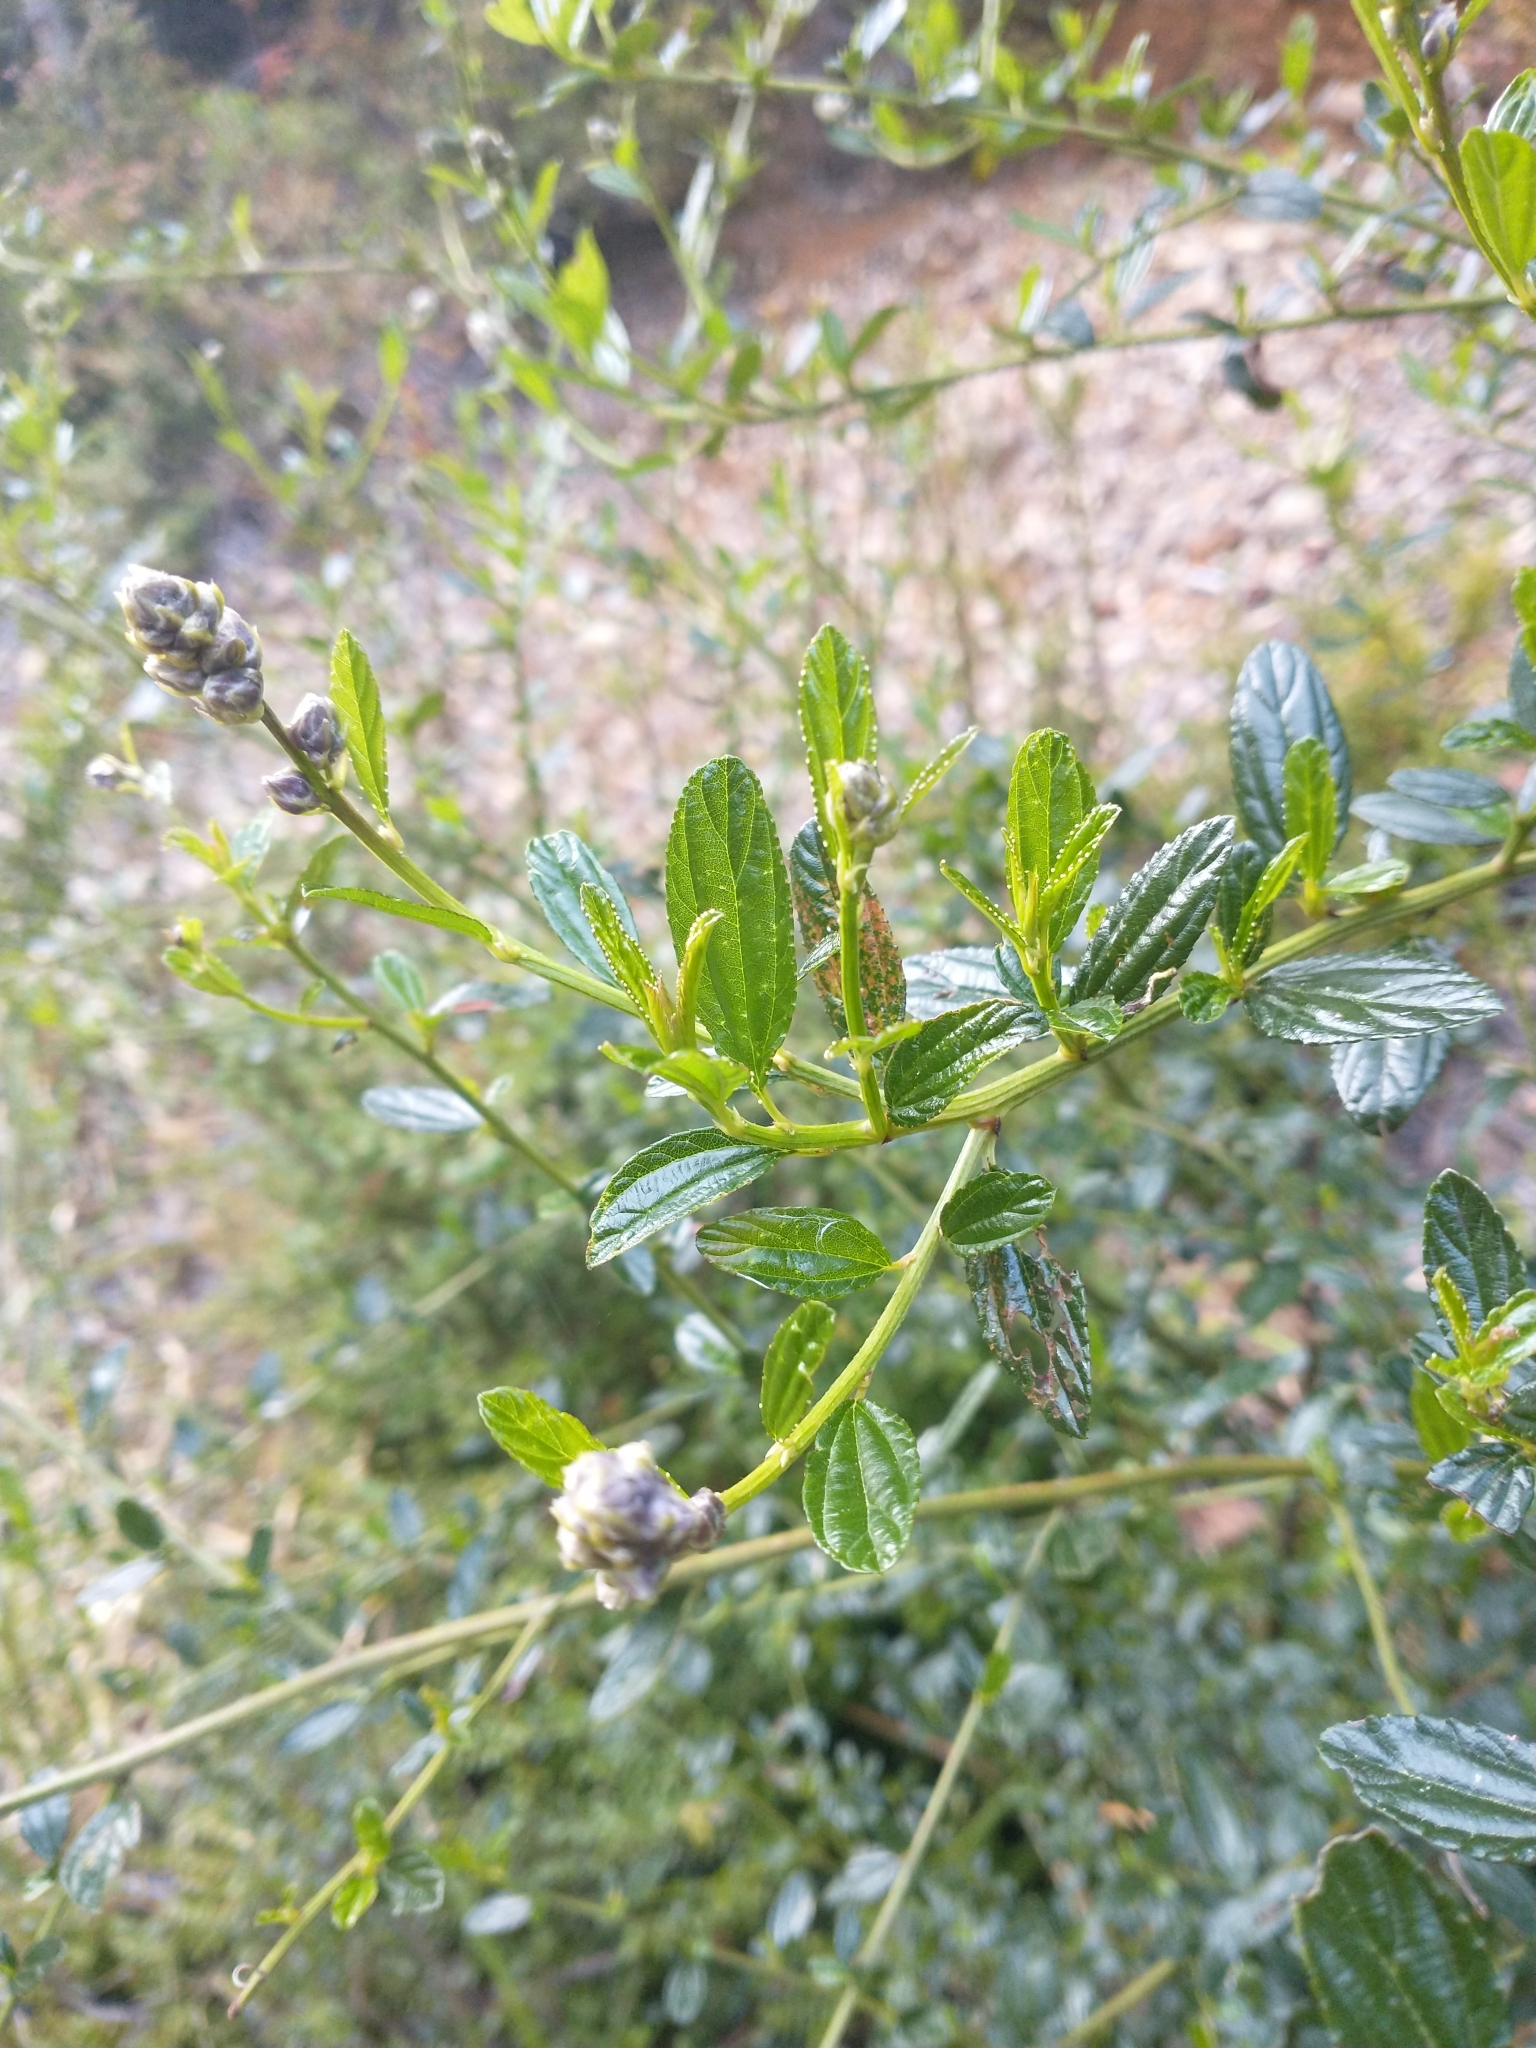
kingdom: Plantae
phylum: Tracheophyta
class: Magnoliopsida
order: Rosales
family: Rhamnaceae
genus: Ceanothus
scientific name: Ceanothus thyrsiflorus
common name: California-lilac
